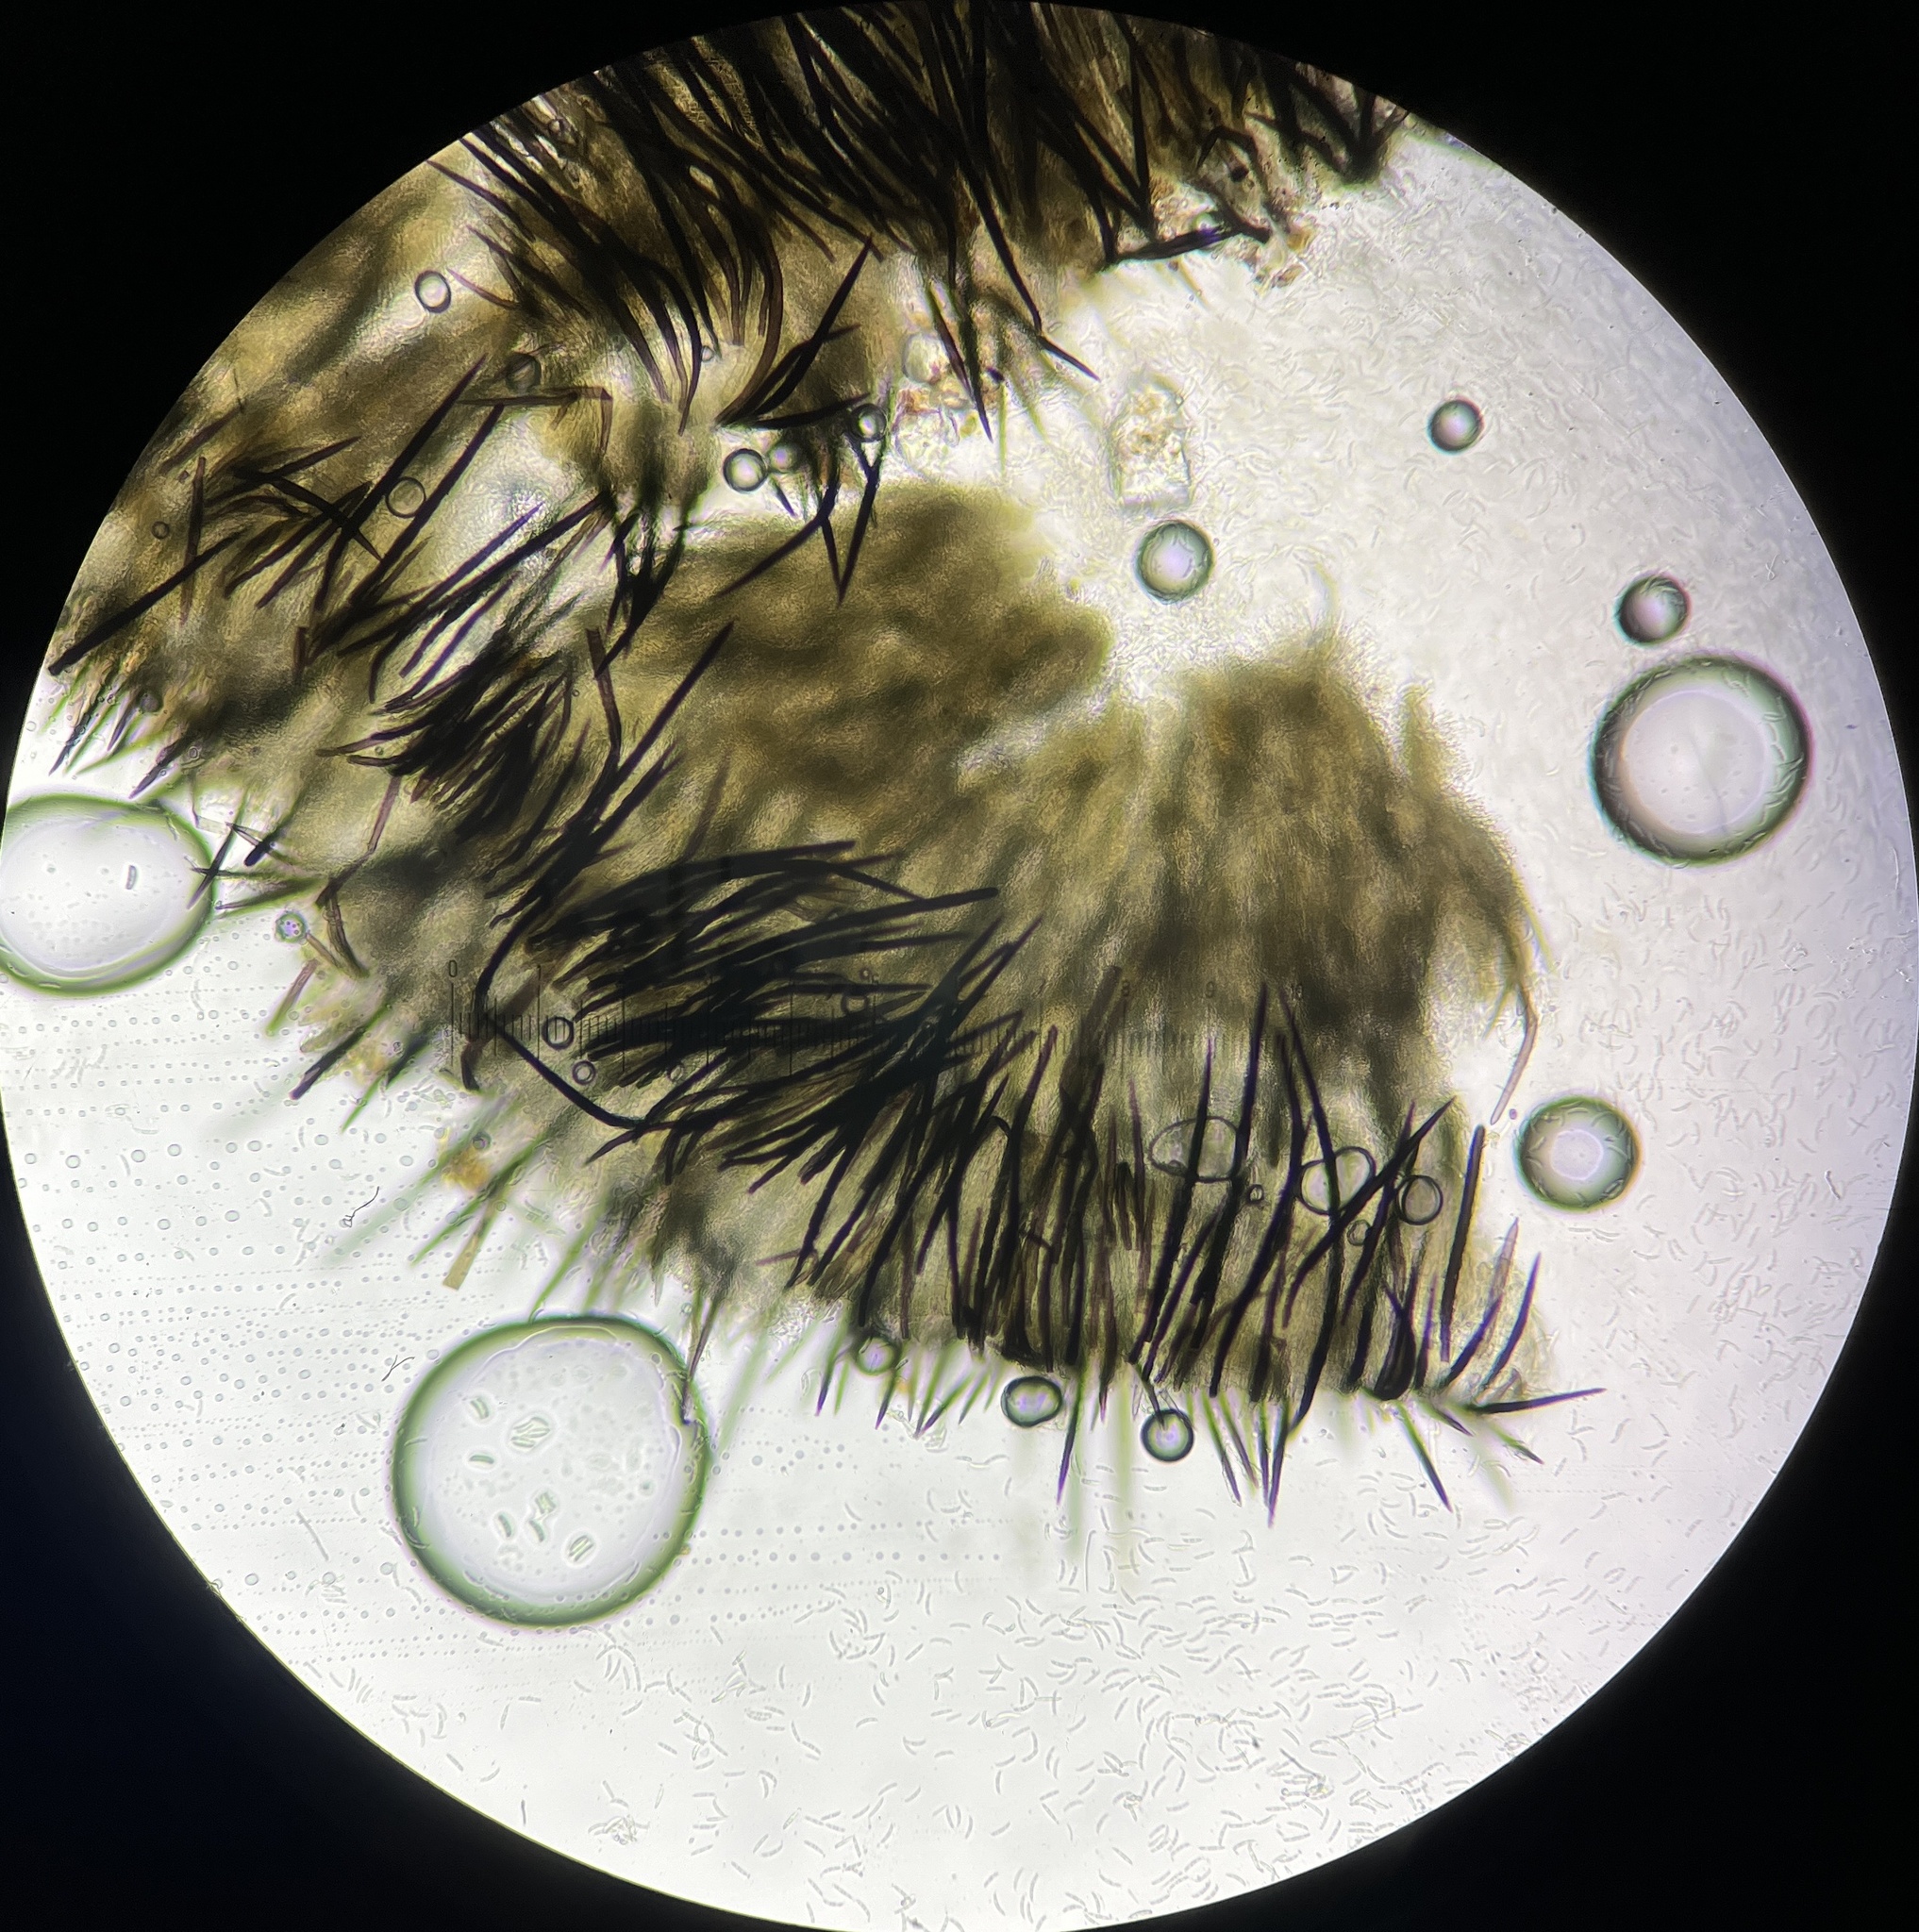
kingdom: Fungi
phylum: Ascomycota
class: Sordariomycetes
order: Chaetosphaeriales
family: Chaetosphaeriaceae
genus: Pseudolachnea
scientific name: Pseudolachnea hispidula
